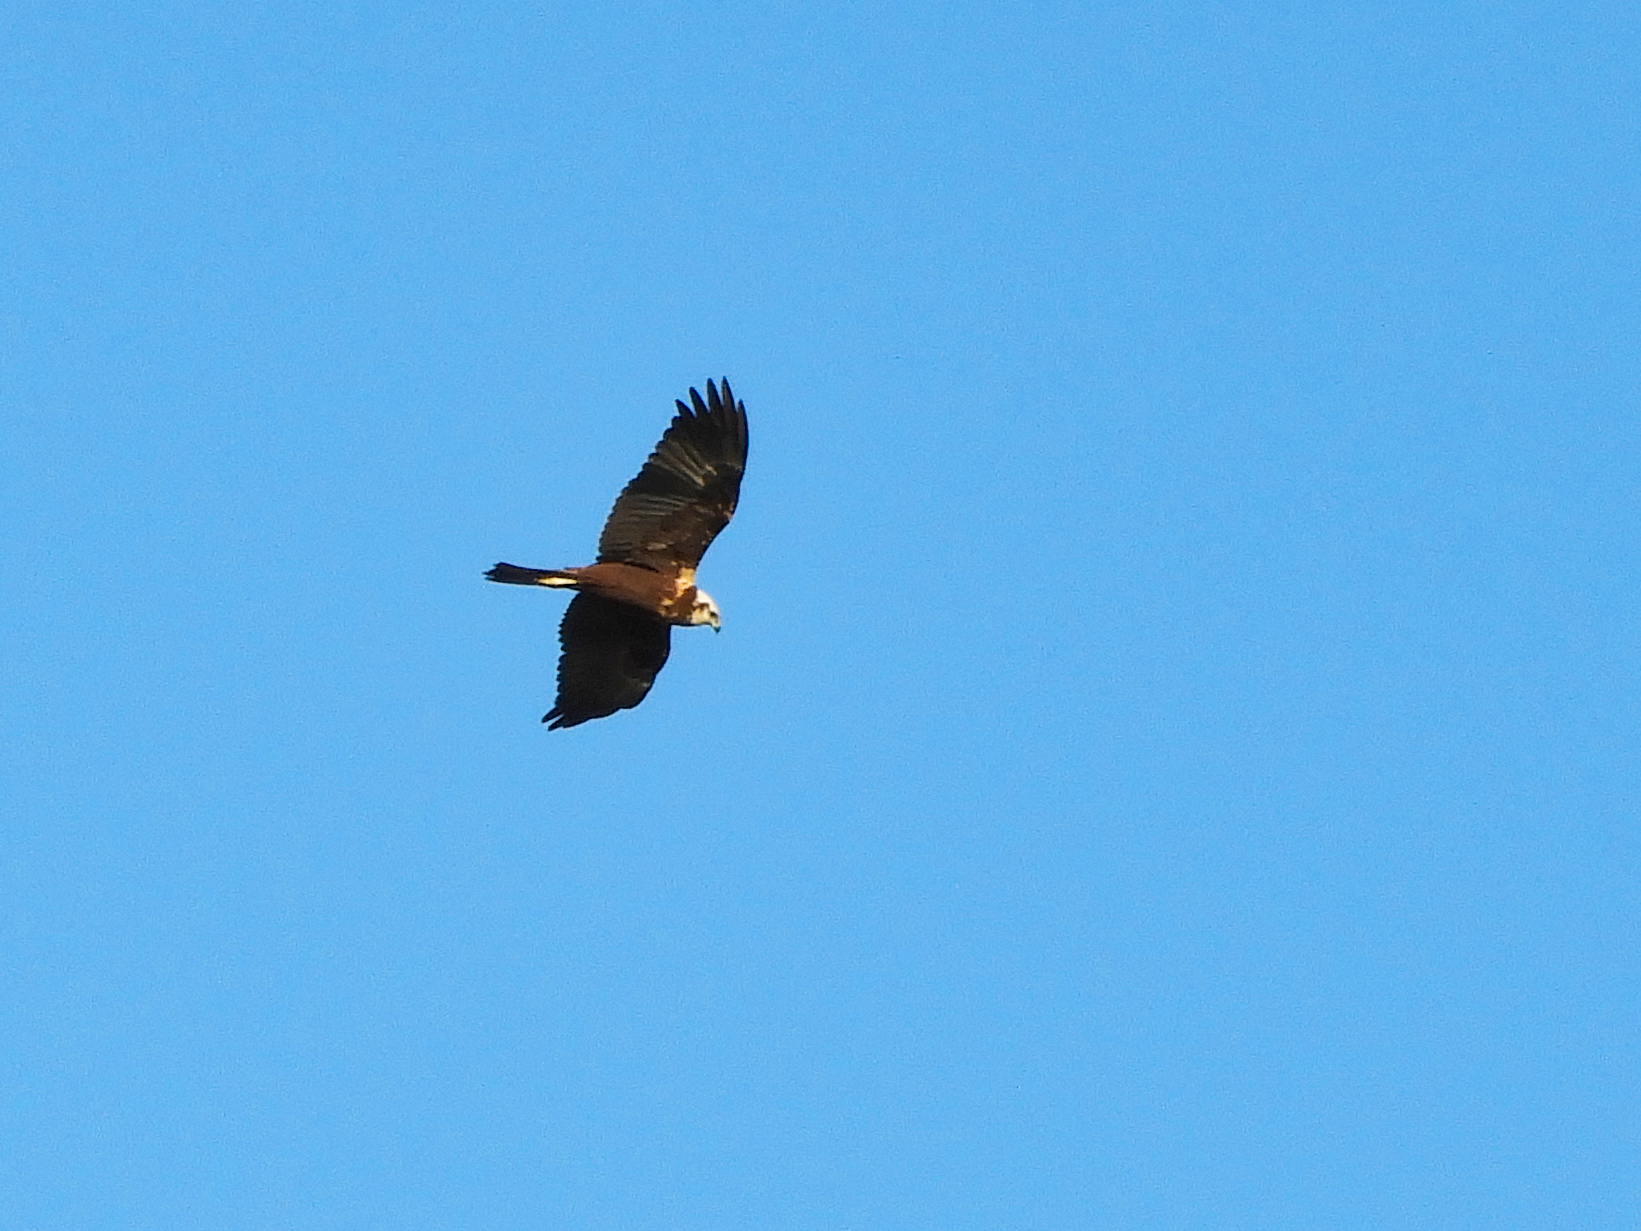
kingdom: Animalia
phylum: Chordata
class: Aves
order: Accipitriformes
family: Accipitridae
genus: Circus
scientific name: Circus aeruginosus
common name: Western marsh harrier
